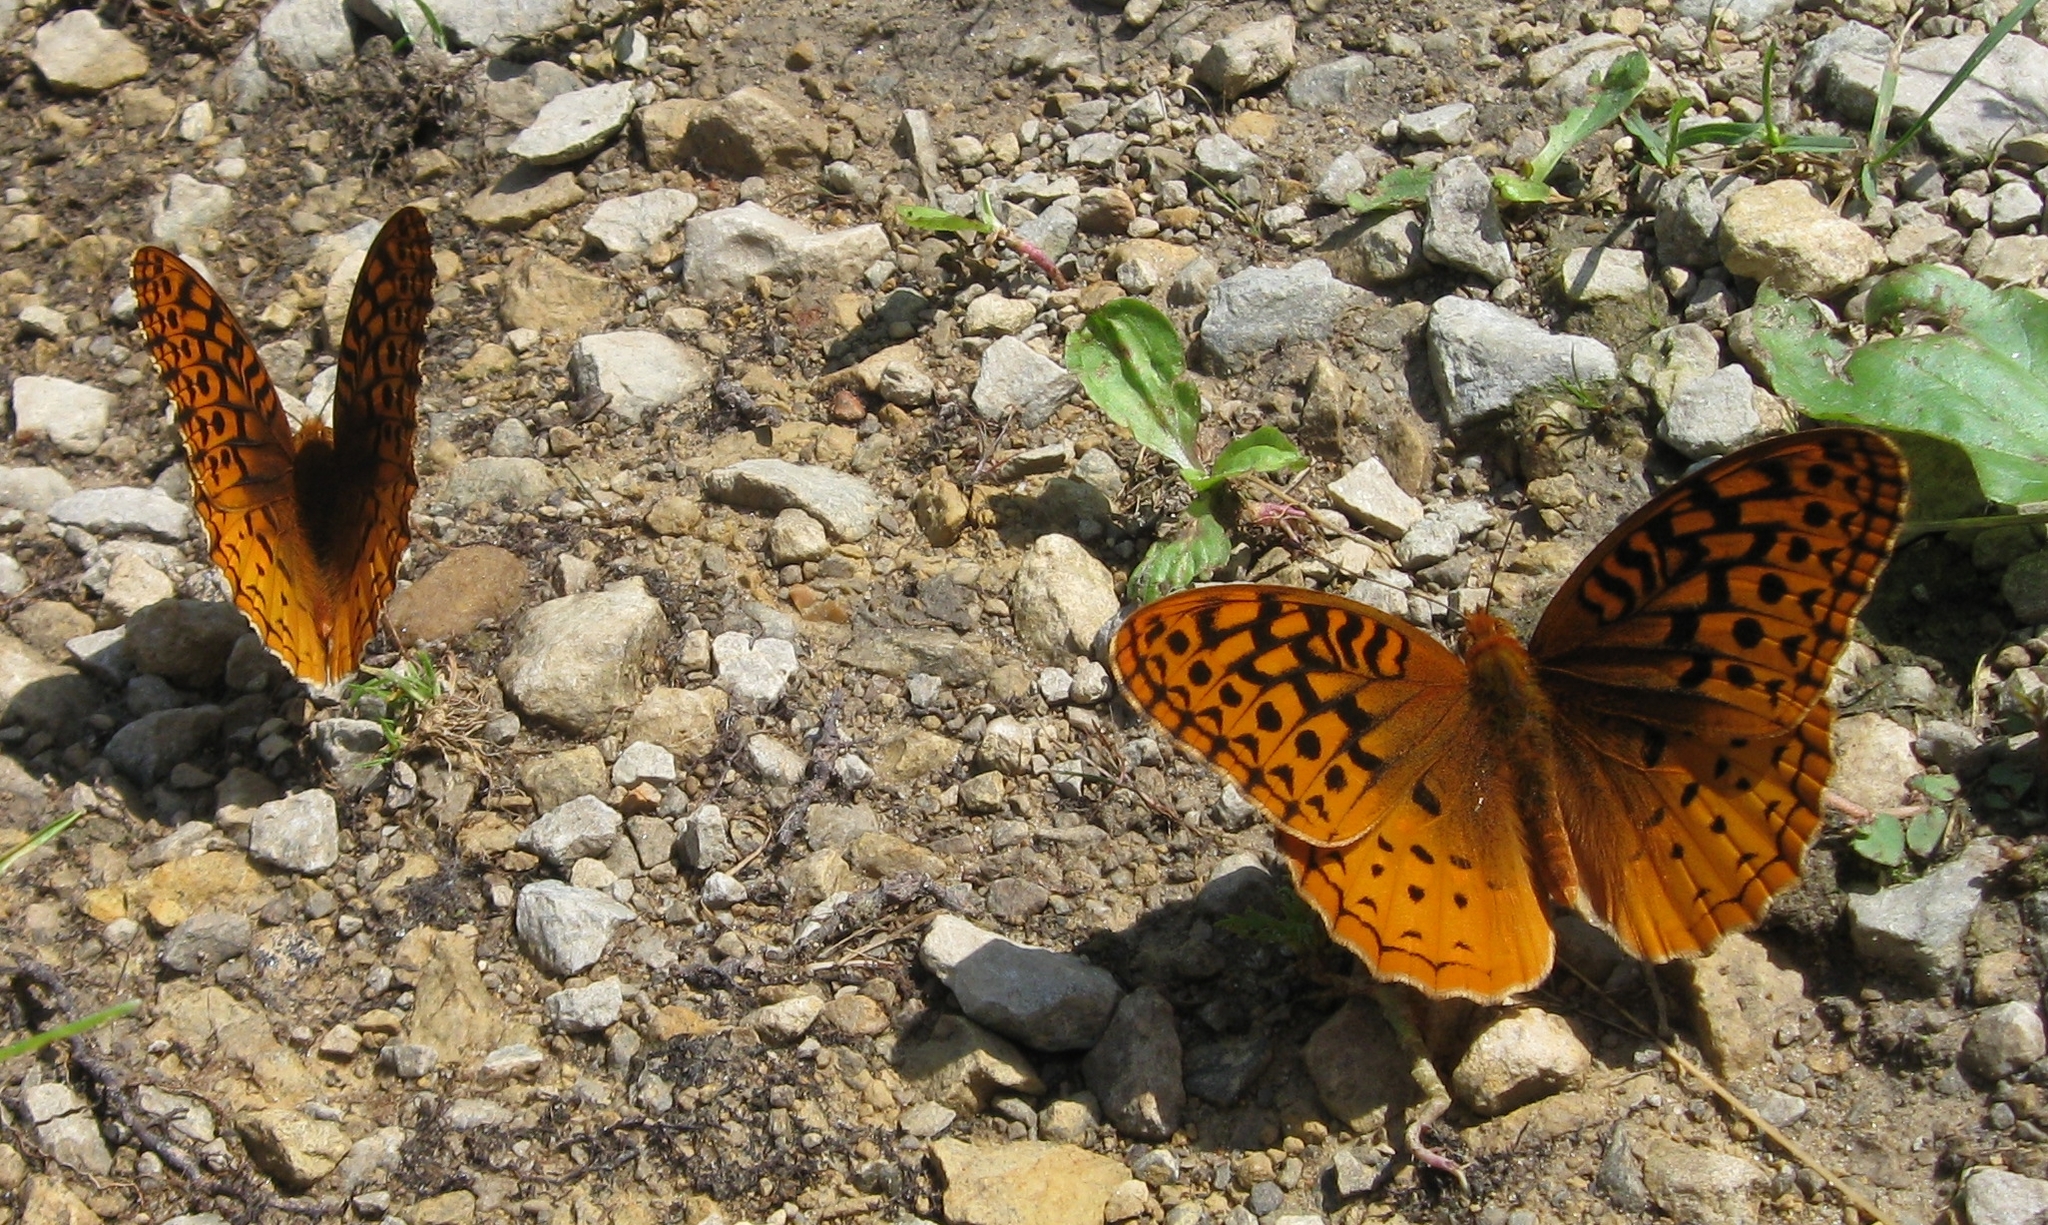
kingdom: Animalia
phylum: Arthropoda
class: Insecta
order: Lepidoptera
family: Nymphalidae
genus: Speyeria
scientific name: Speyeria cybele
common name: Great spangled fritillary
